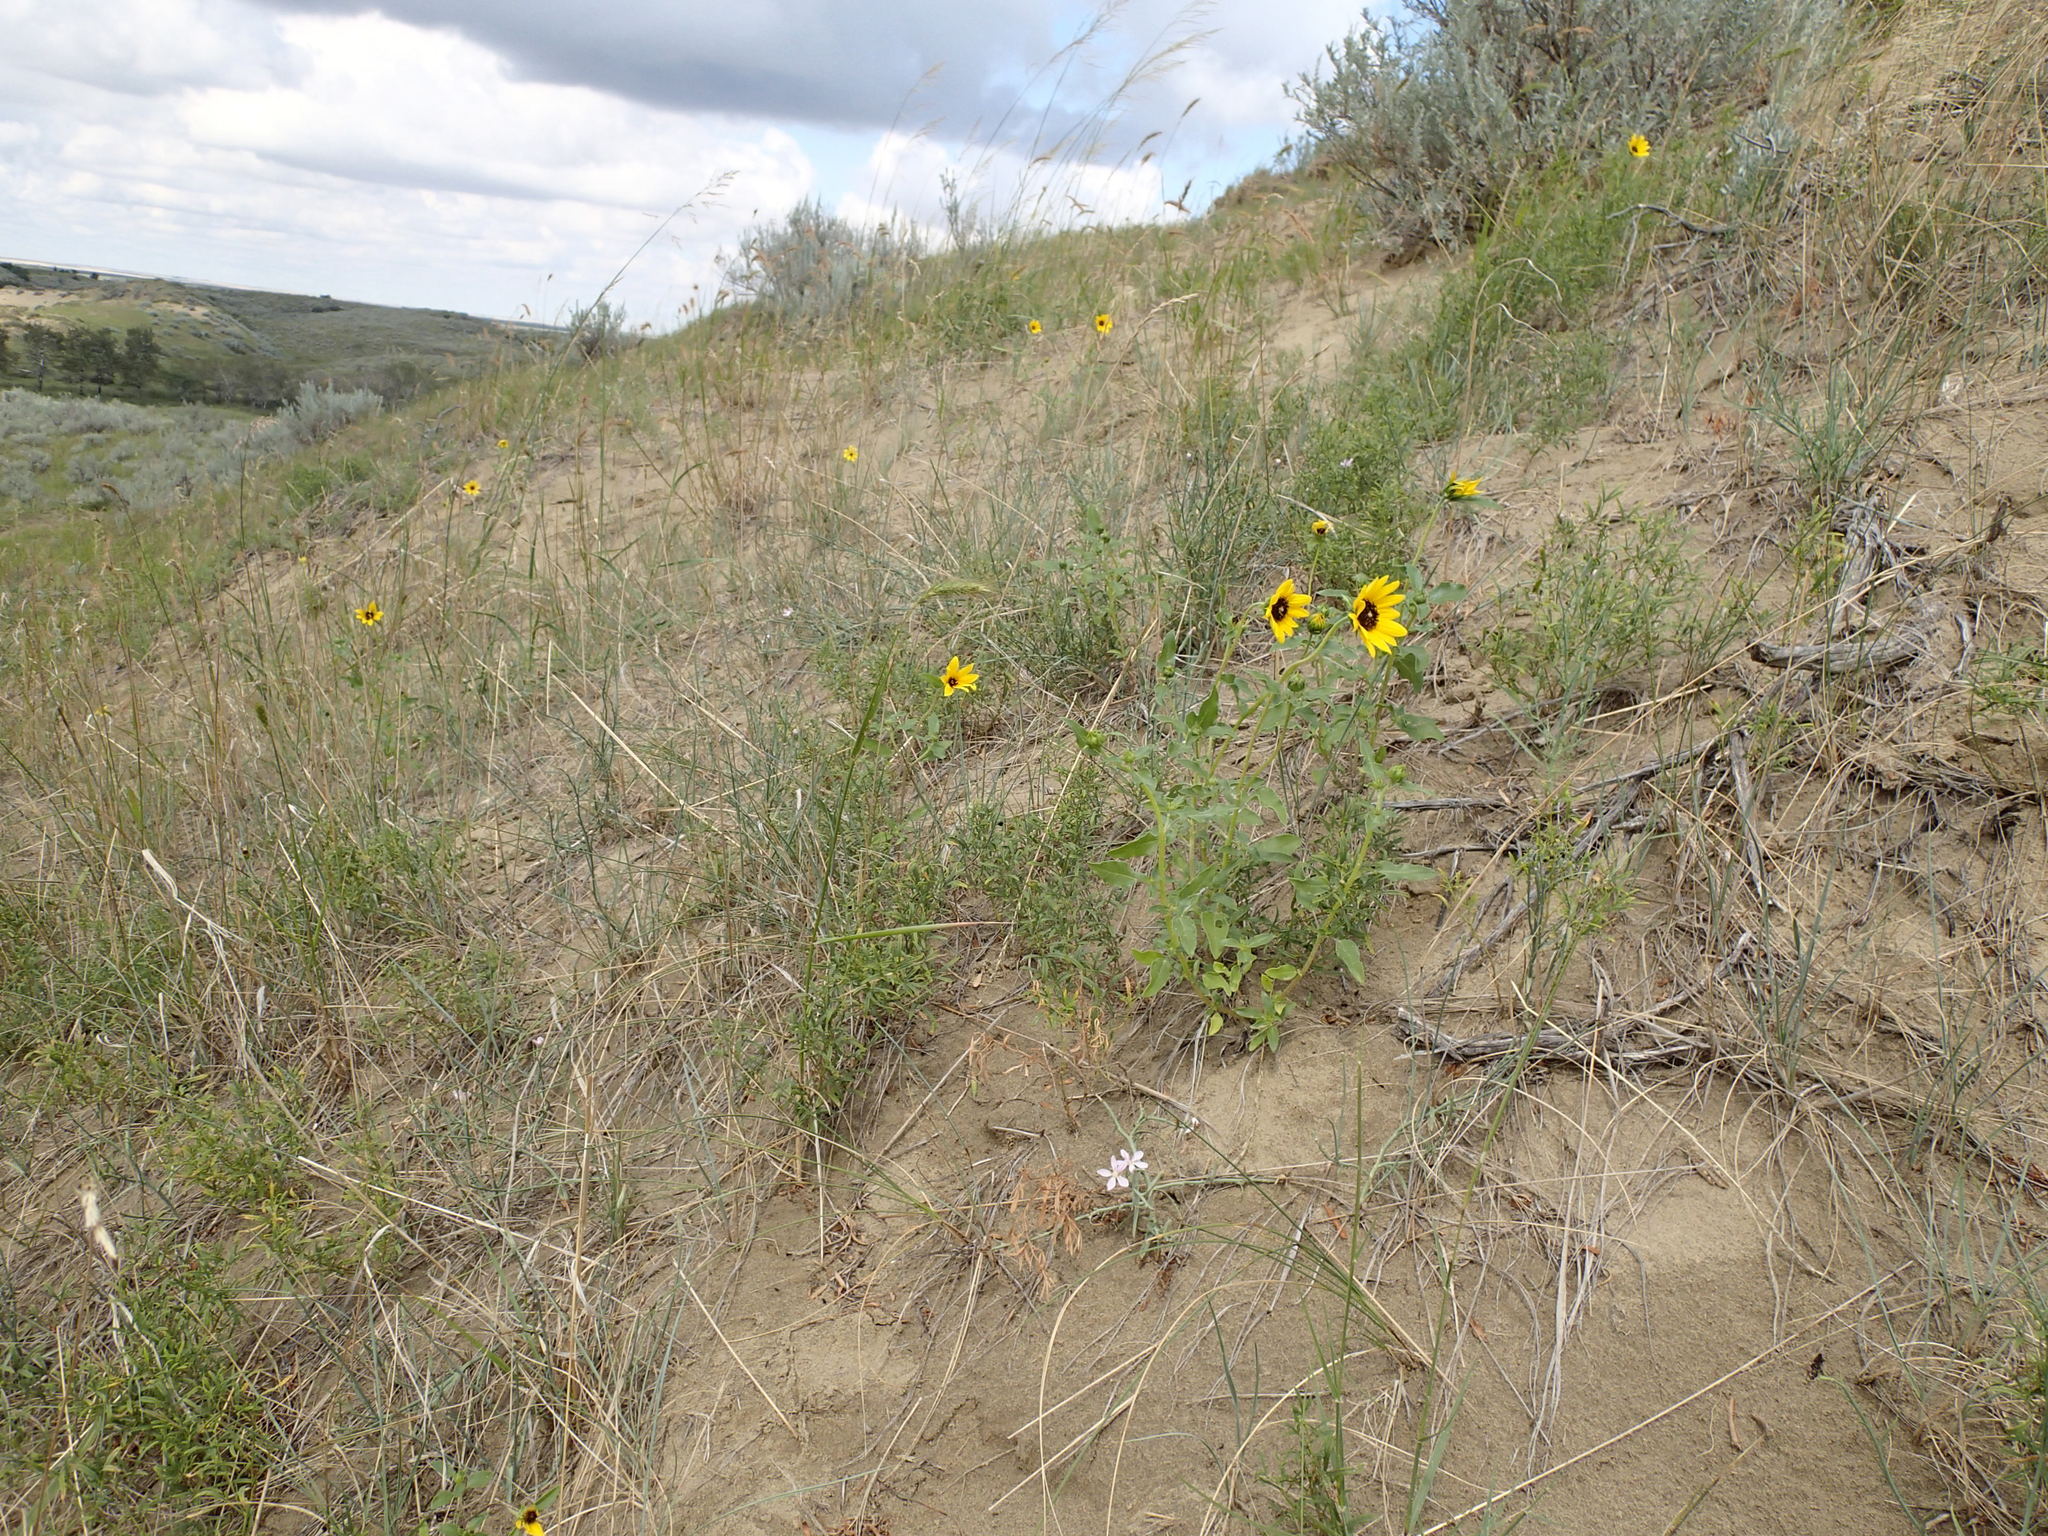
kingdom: Plantae
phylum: Tracheophyta
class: Magnoliopsida
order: Asterales
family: Asteraceae
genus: Helianthus
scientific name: Helianthus petiolaris
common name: Lesser sunflower
